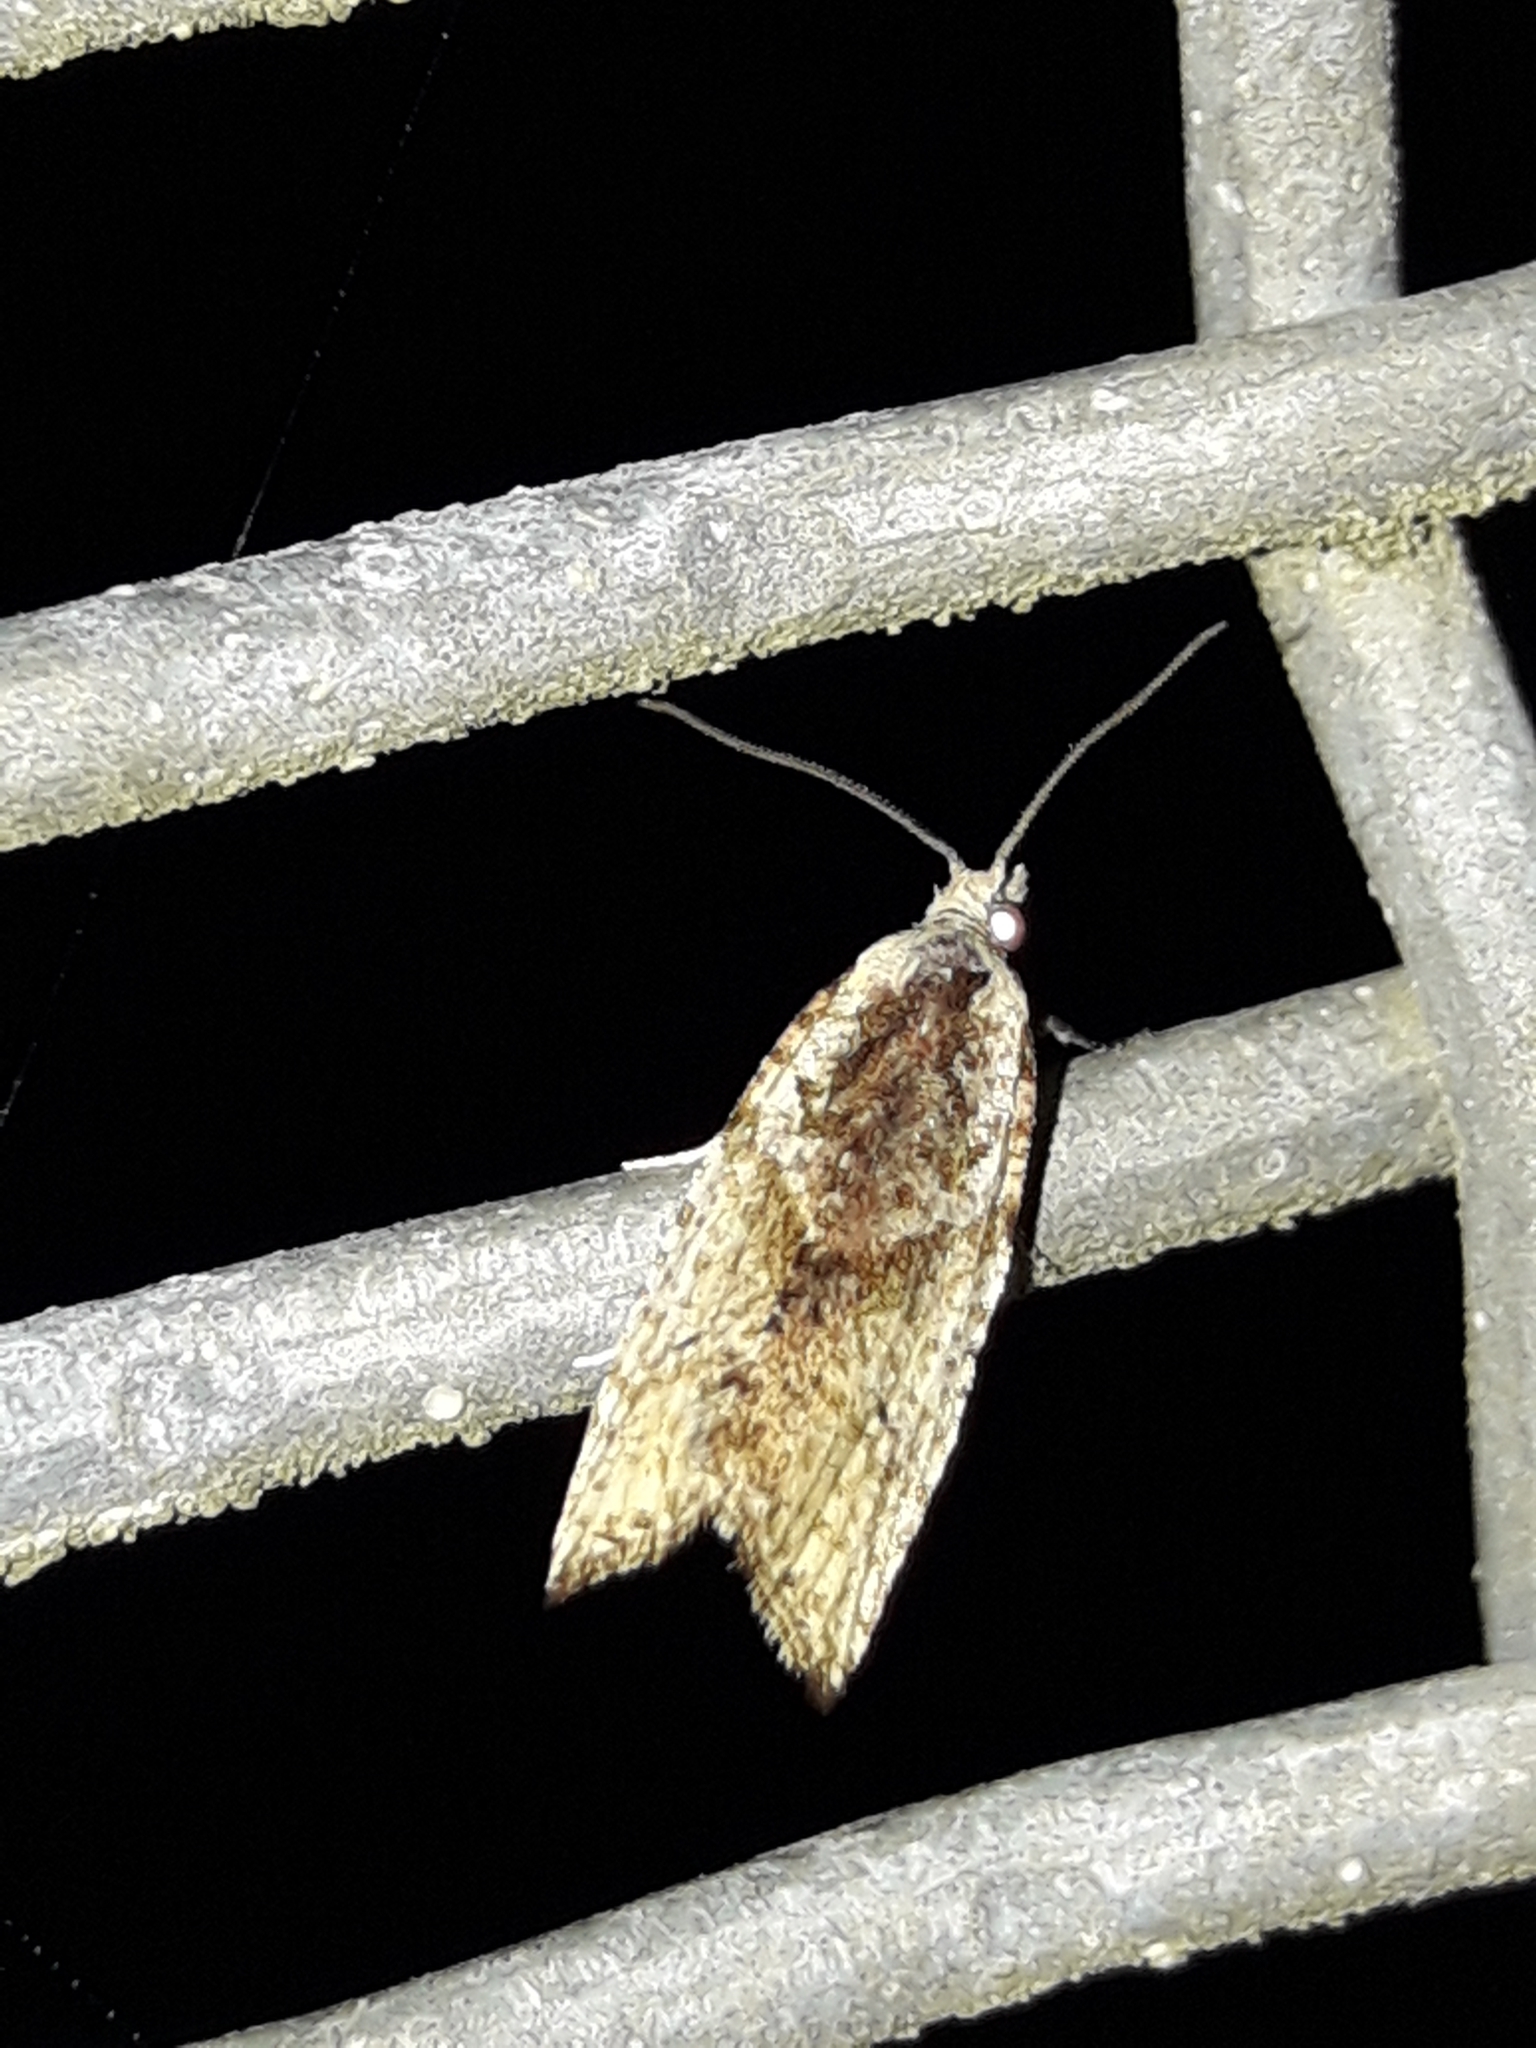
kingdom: Animalia
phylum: Arthropoda
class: Insecta
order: Lepidoptera
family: Tortricidae
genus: Pyrgotis
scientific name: Pyrgotis plagiatana
